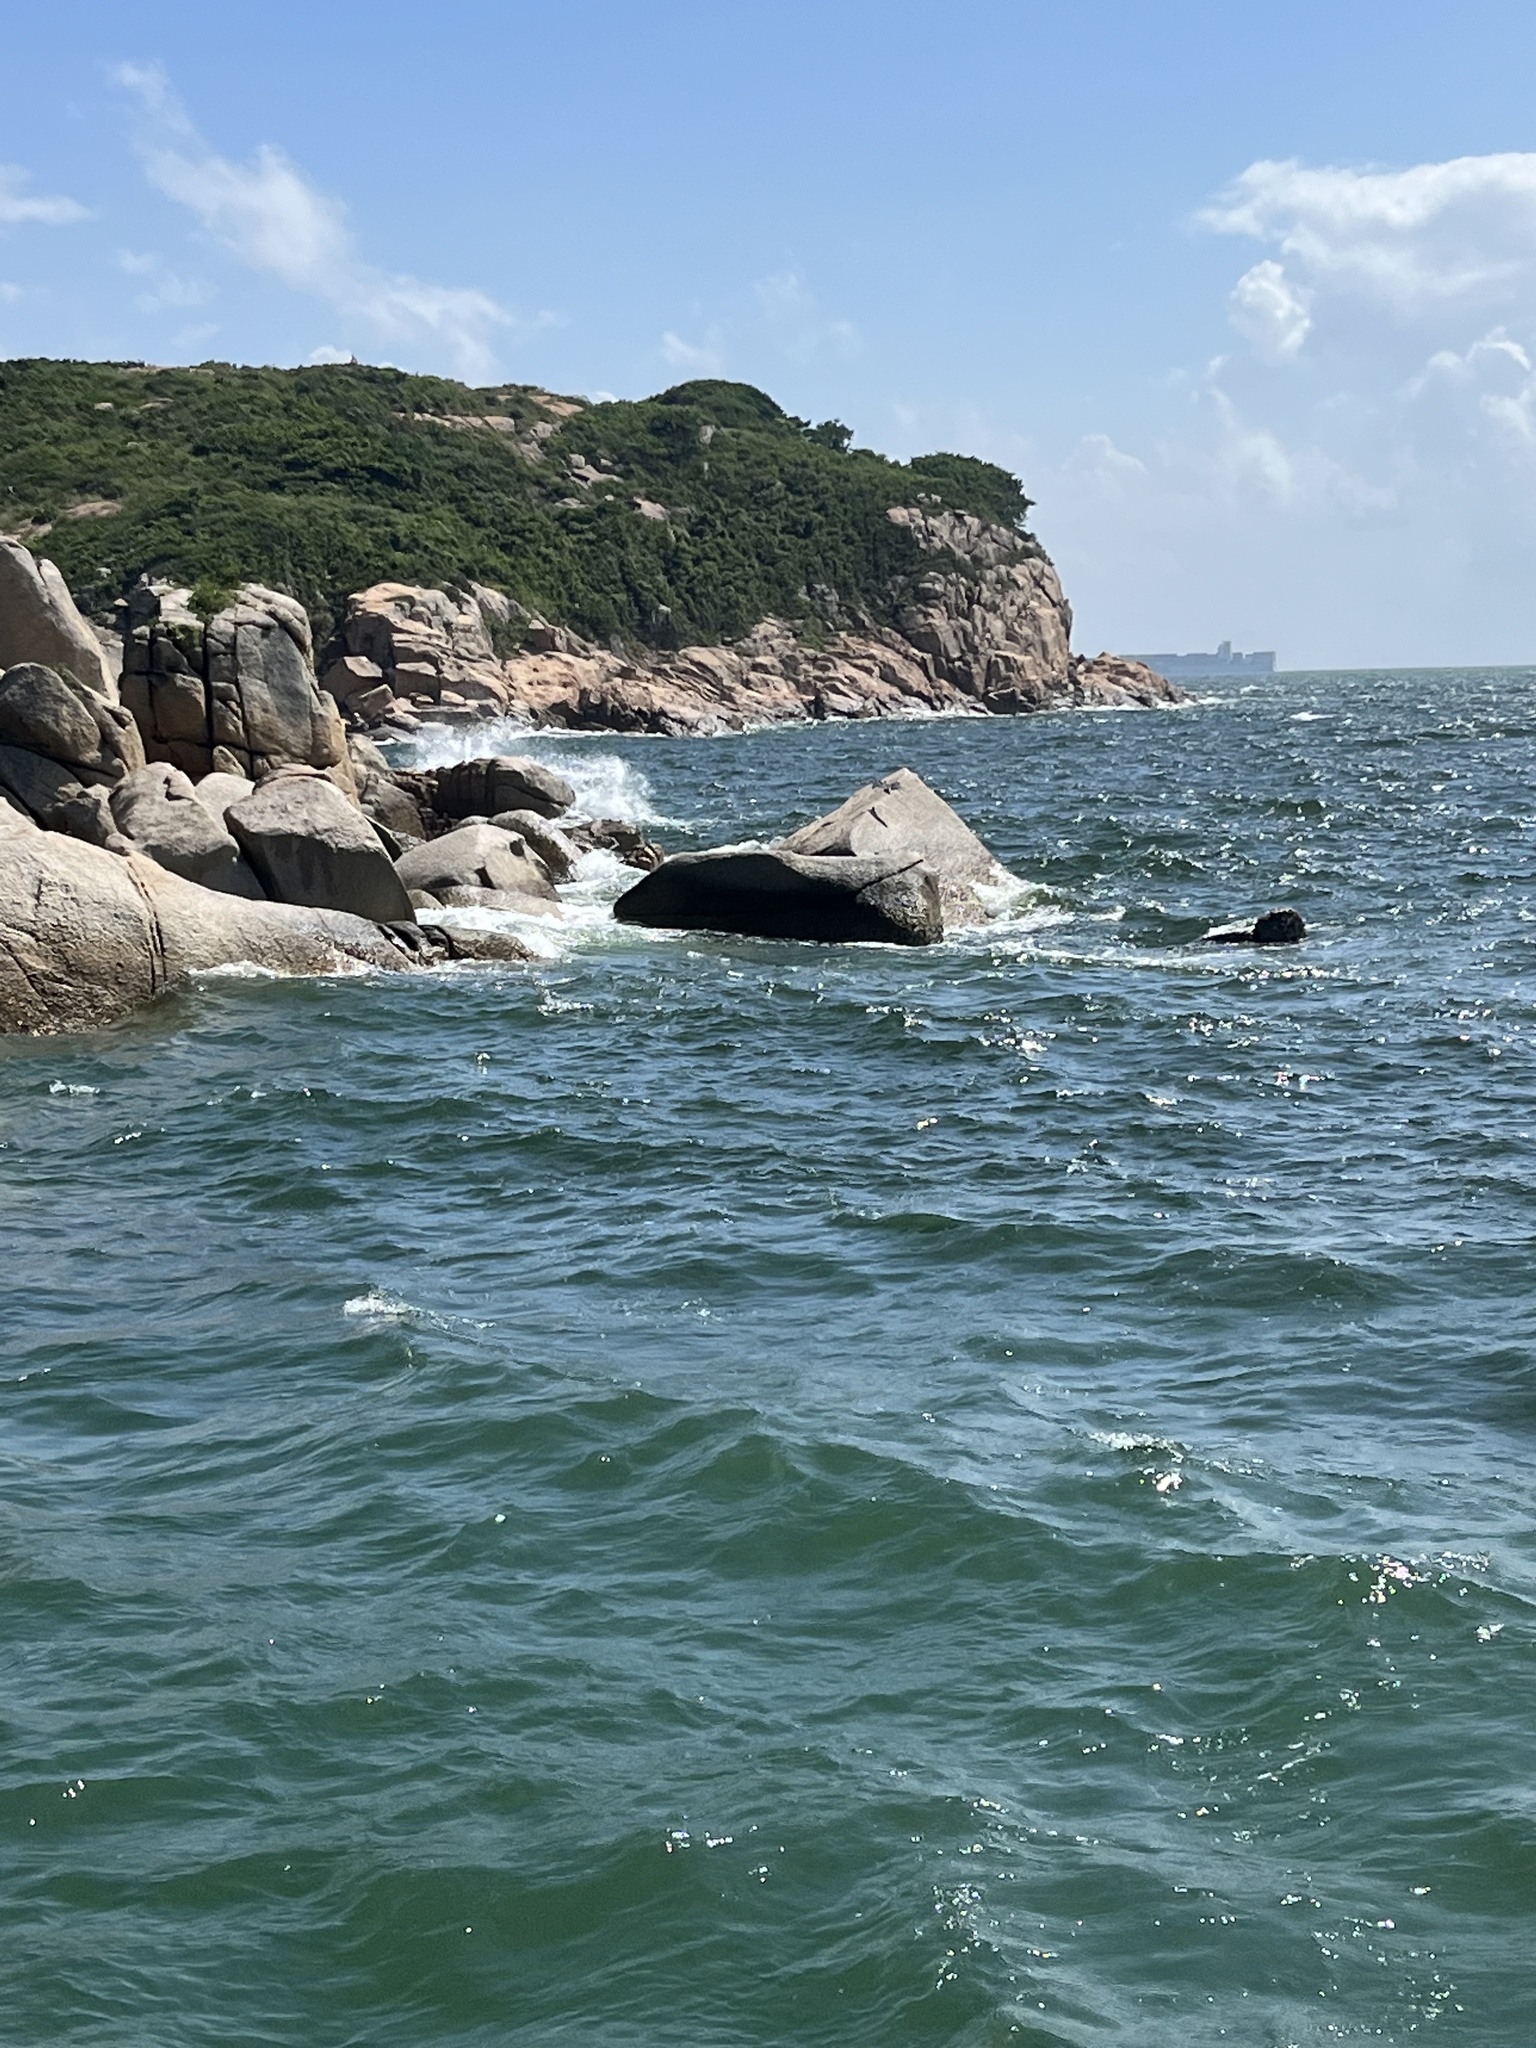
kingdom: Animalia
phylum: Chordata
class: Aves
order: Pelecaniformes
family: Ardeidae
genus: Egretta
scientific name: Egretta sacra
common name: Pacific reef heron
